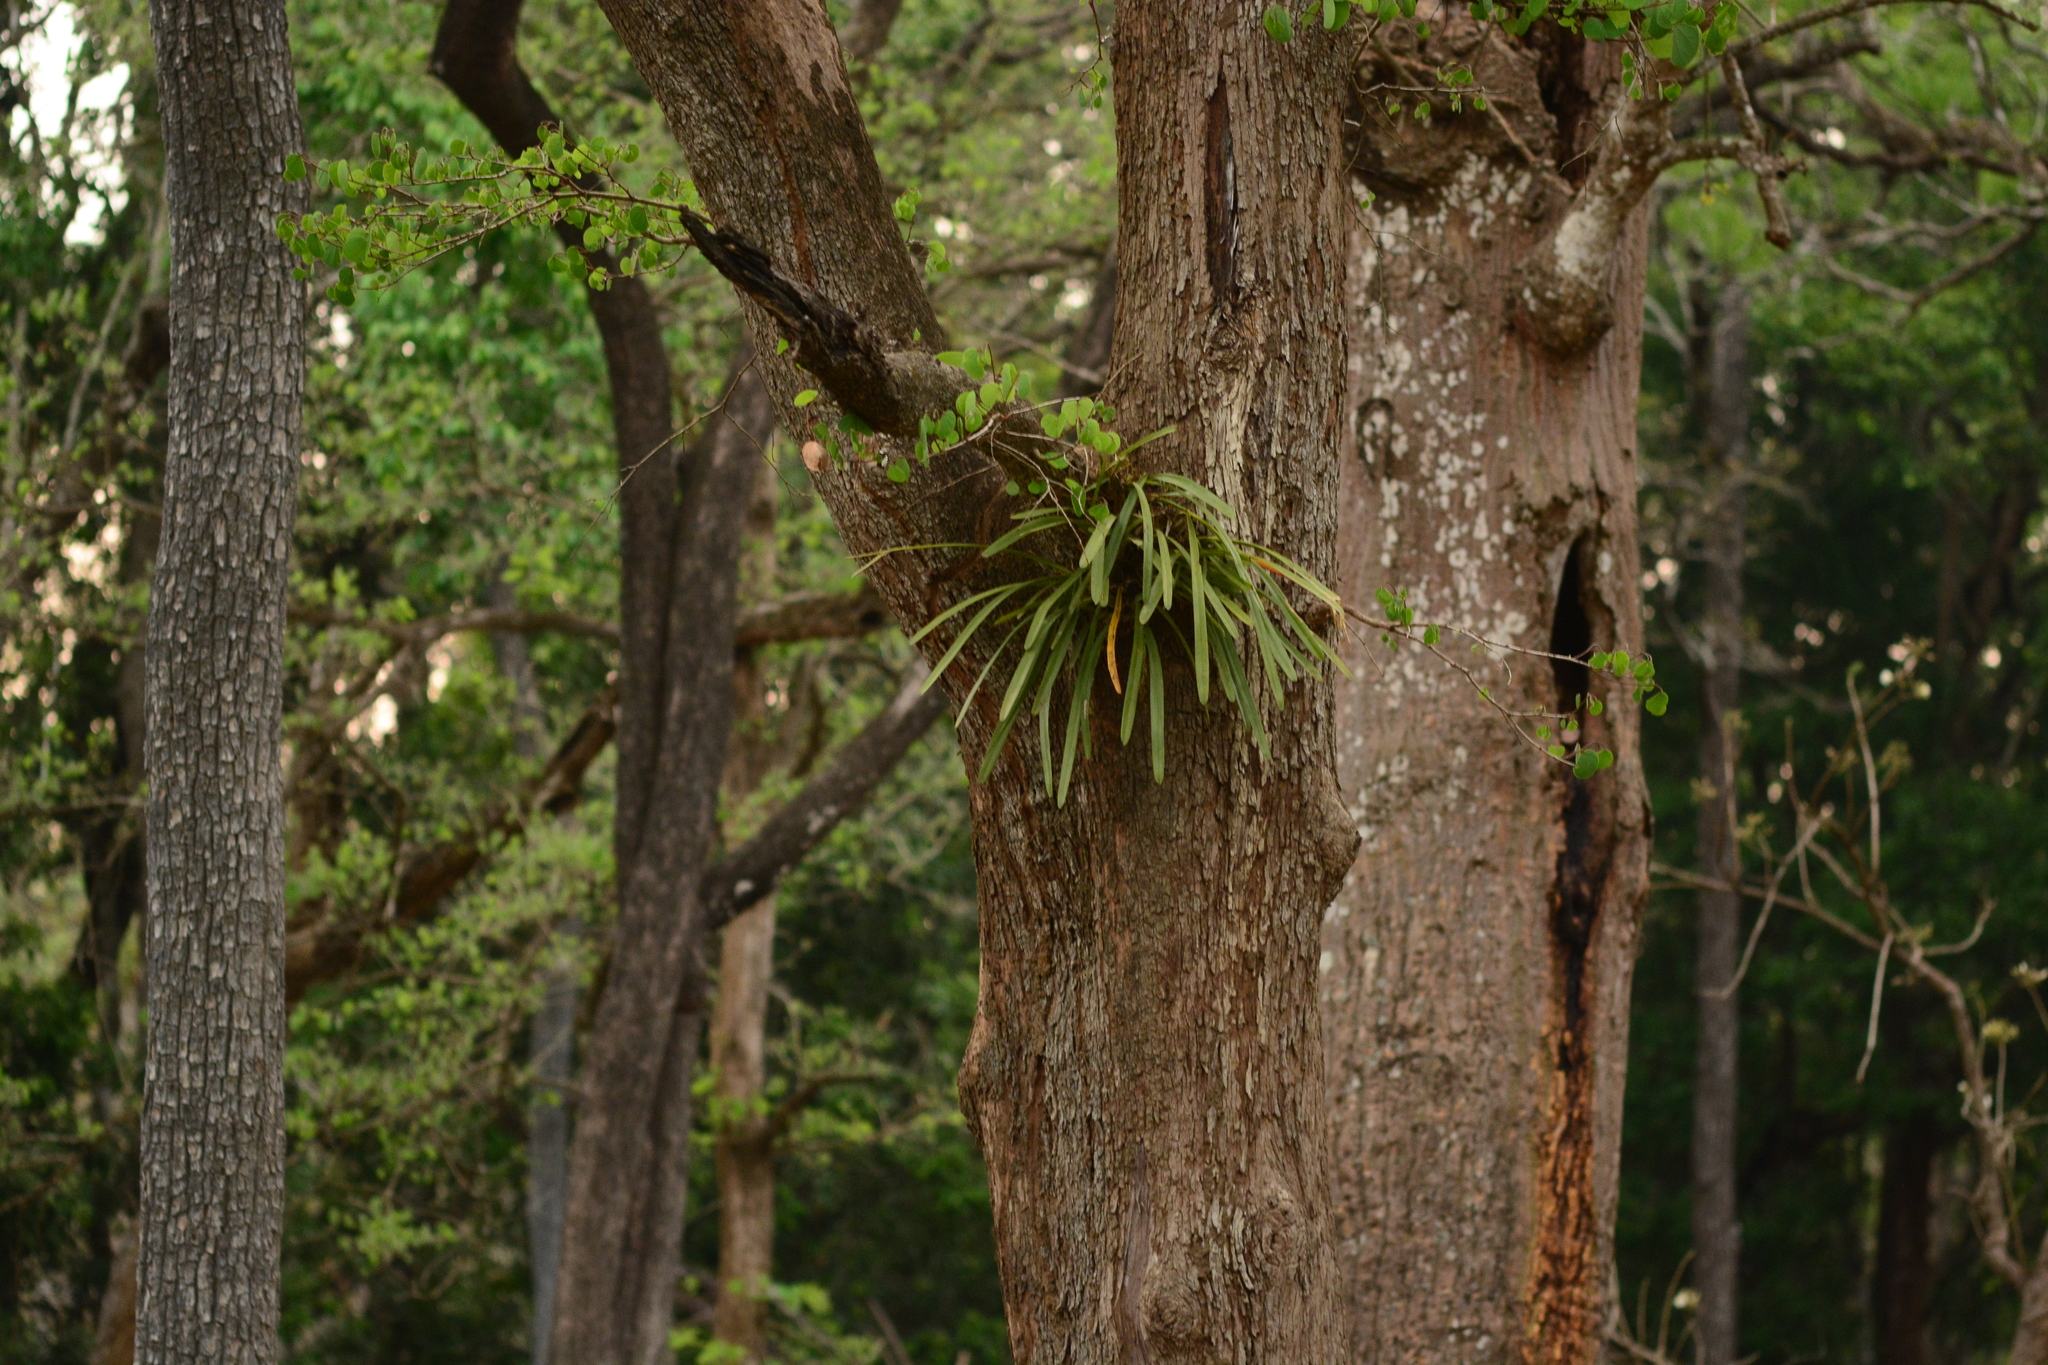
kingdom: Plantae
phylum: Tracheophyta
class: Liliopsida
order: Asparagales
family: Orchidaceae
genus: Cymbidium
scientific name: Cymbidium bicolor
